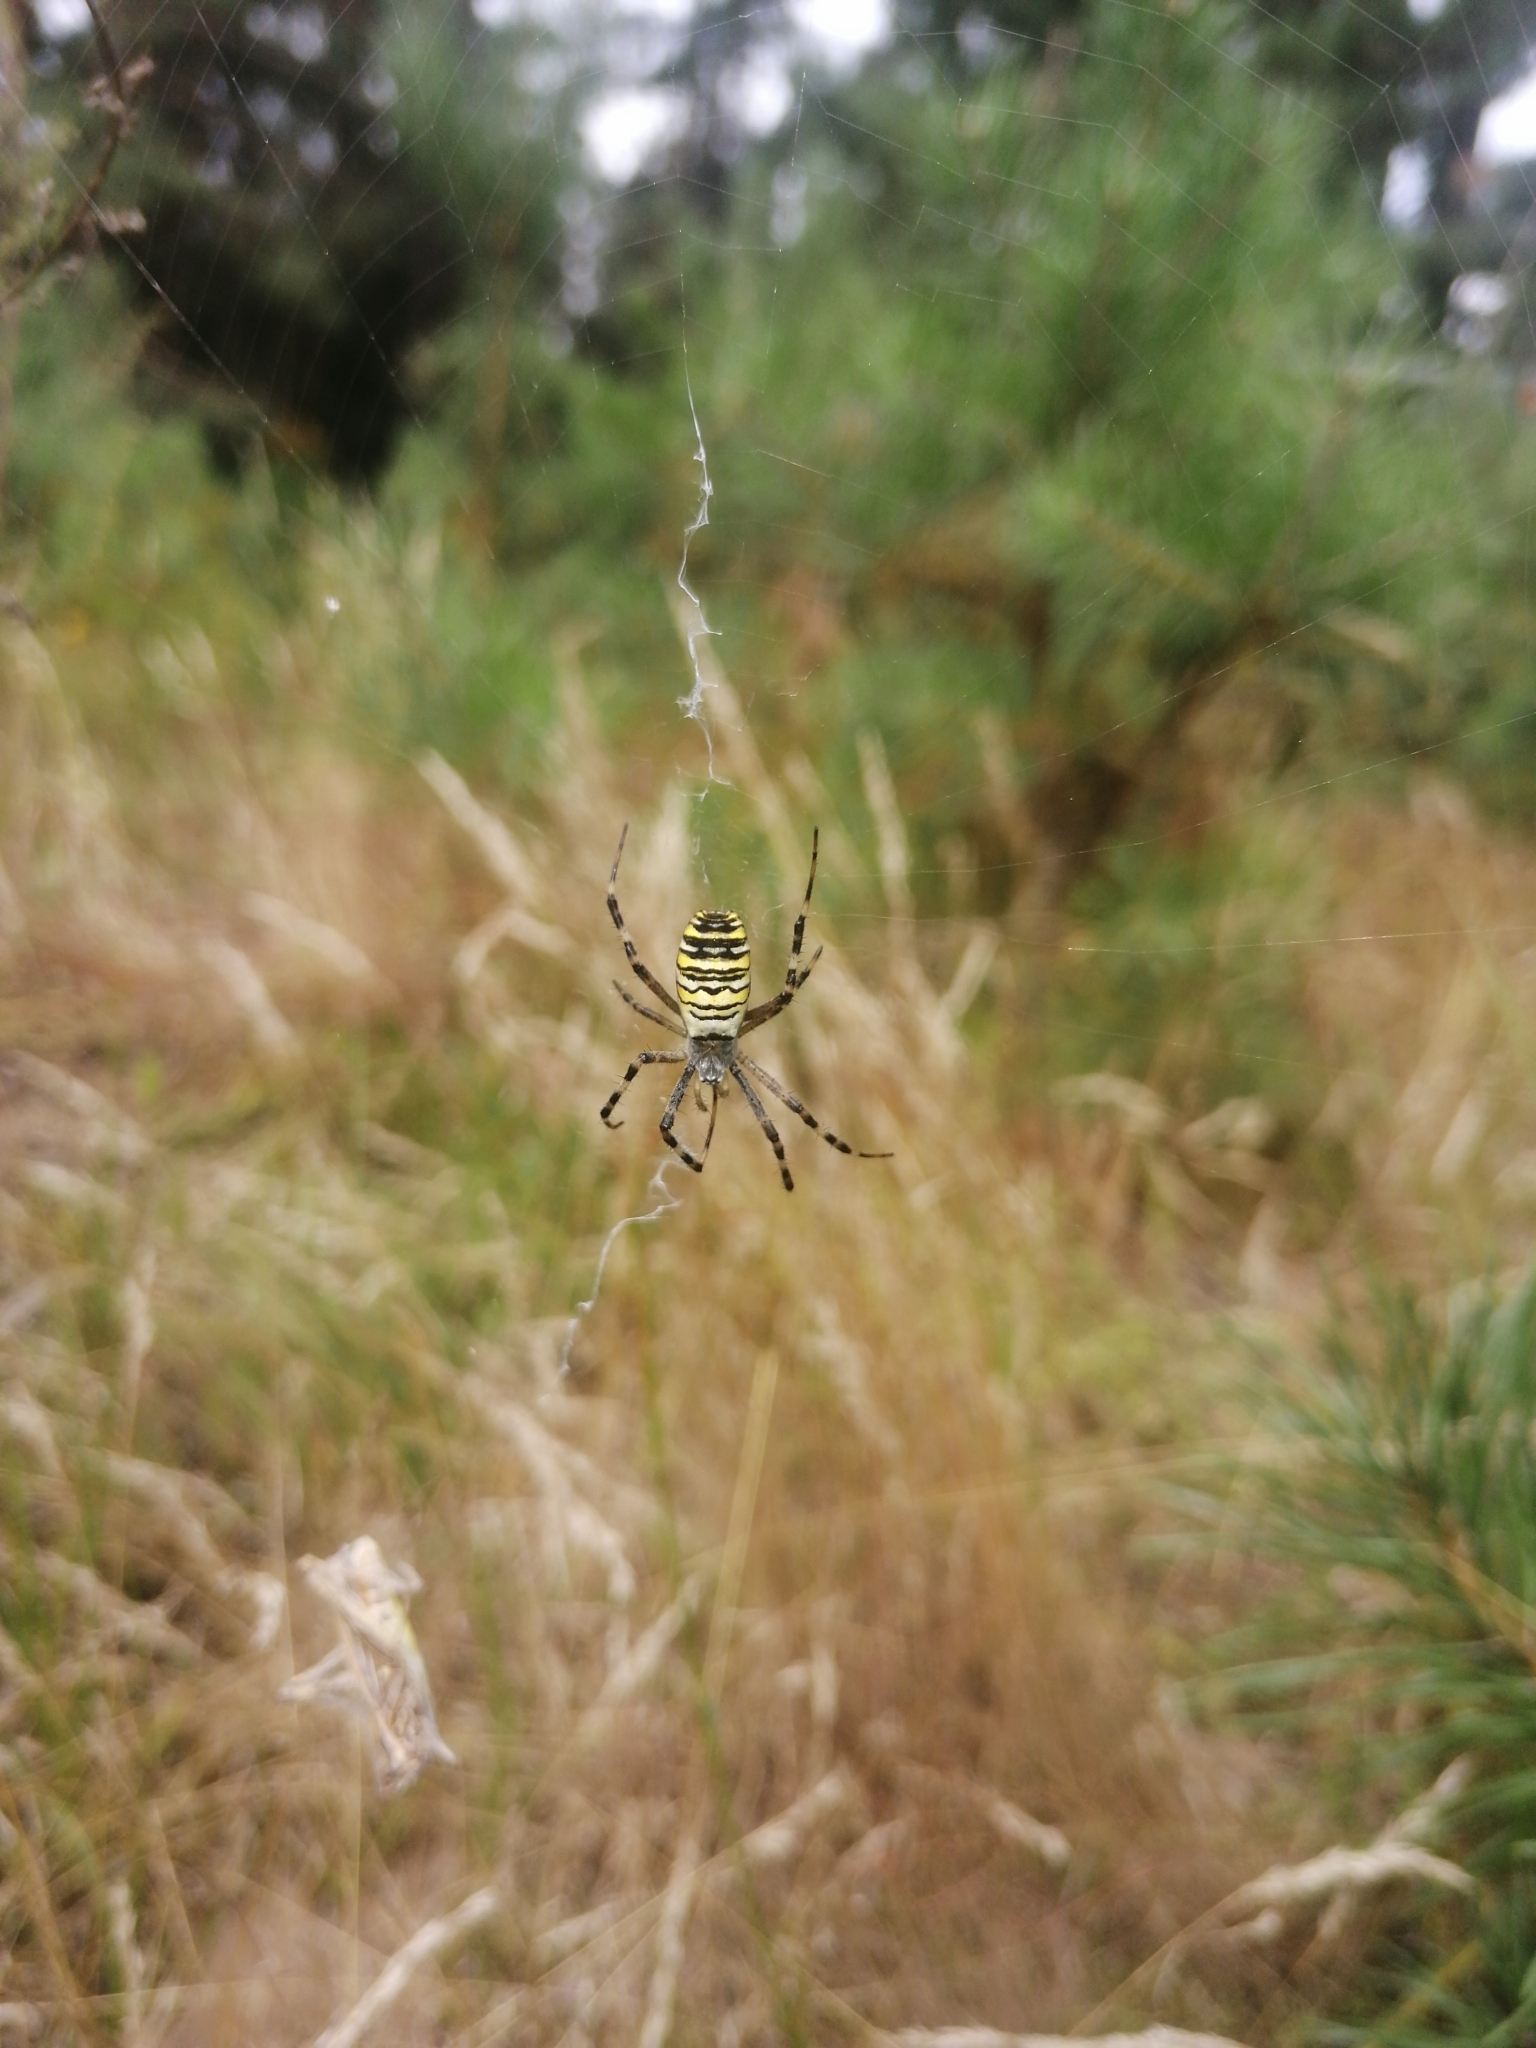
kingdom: Animalia
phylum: Arthropoda
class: Arachnida
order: Araneae
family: Araneidae
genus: Argiope
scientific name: Argiope bruennichi
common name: Wasp spider
